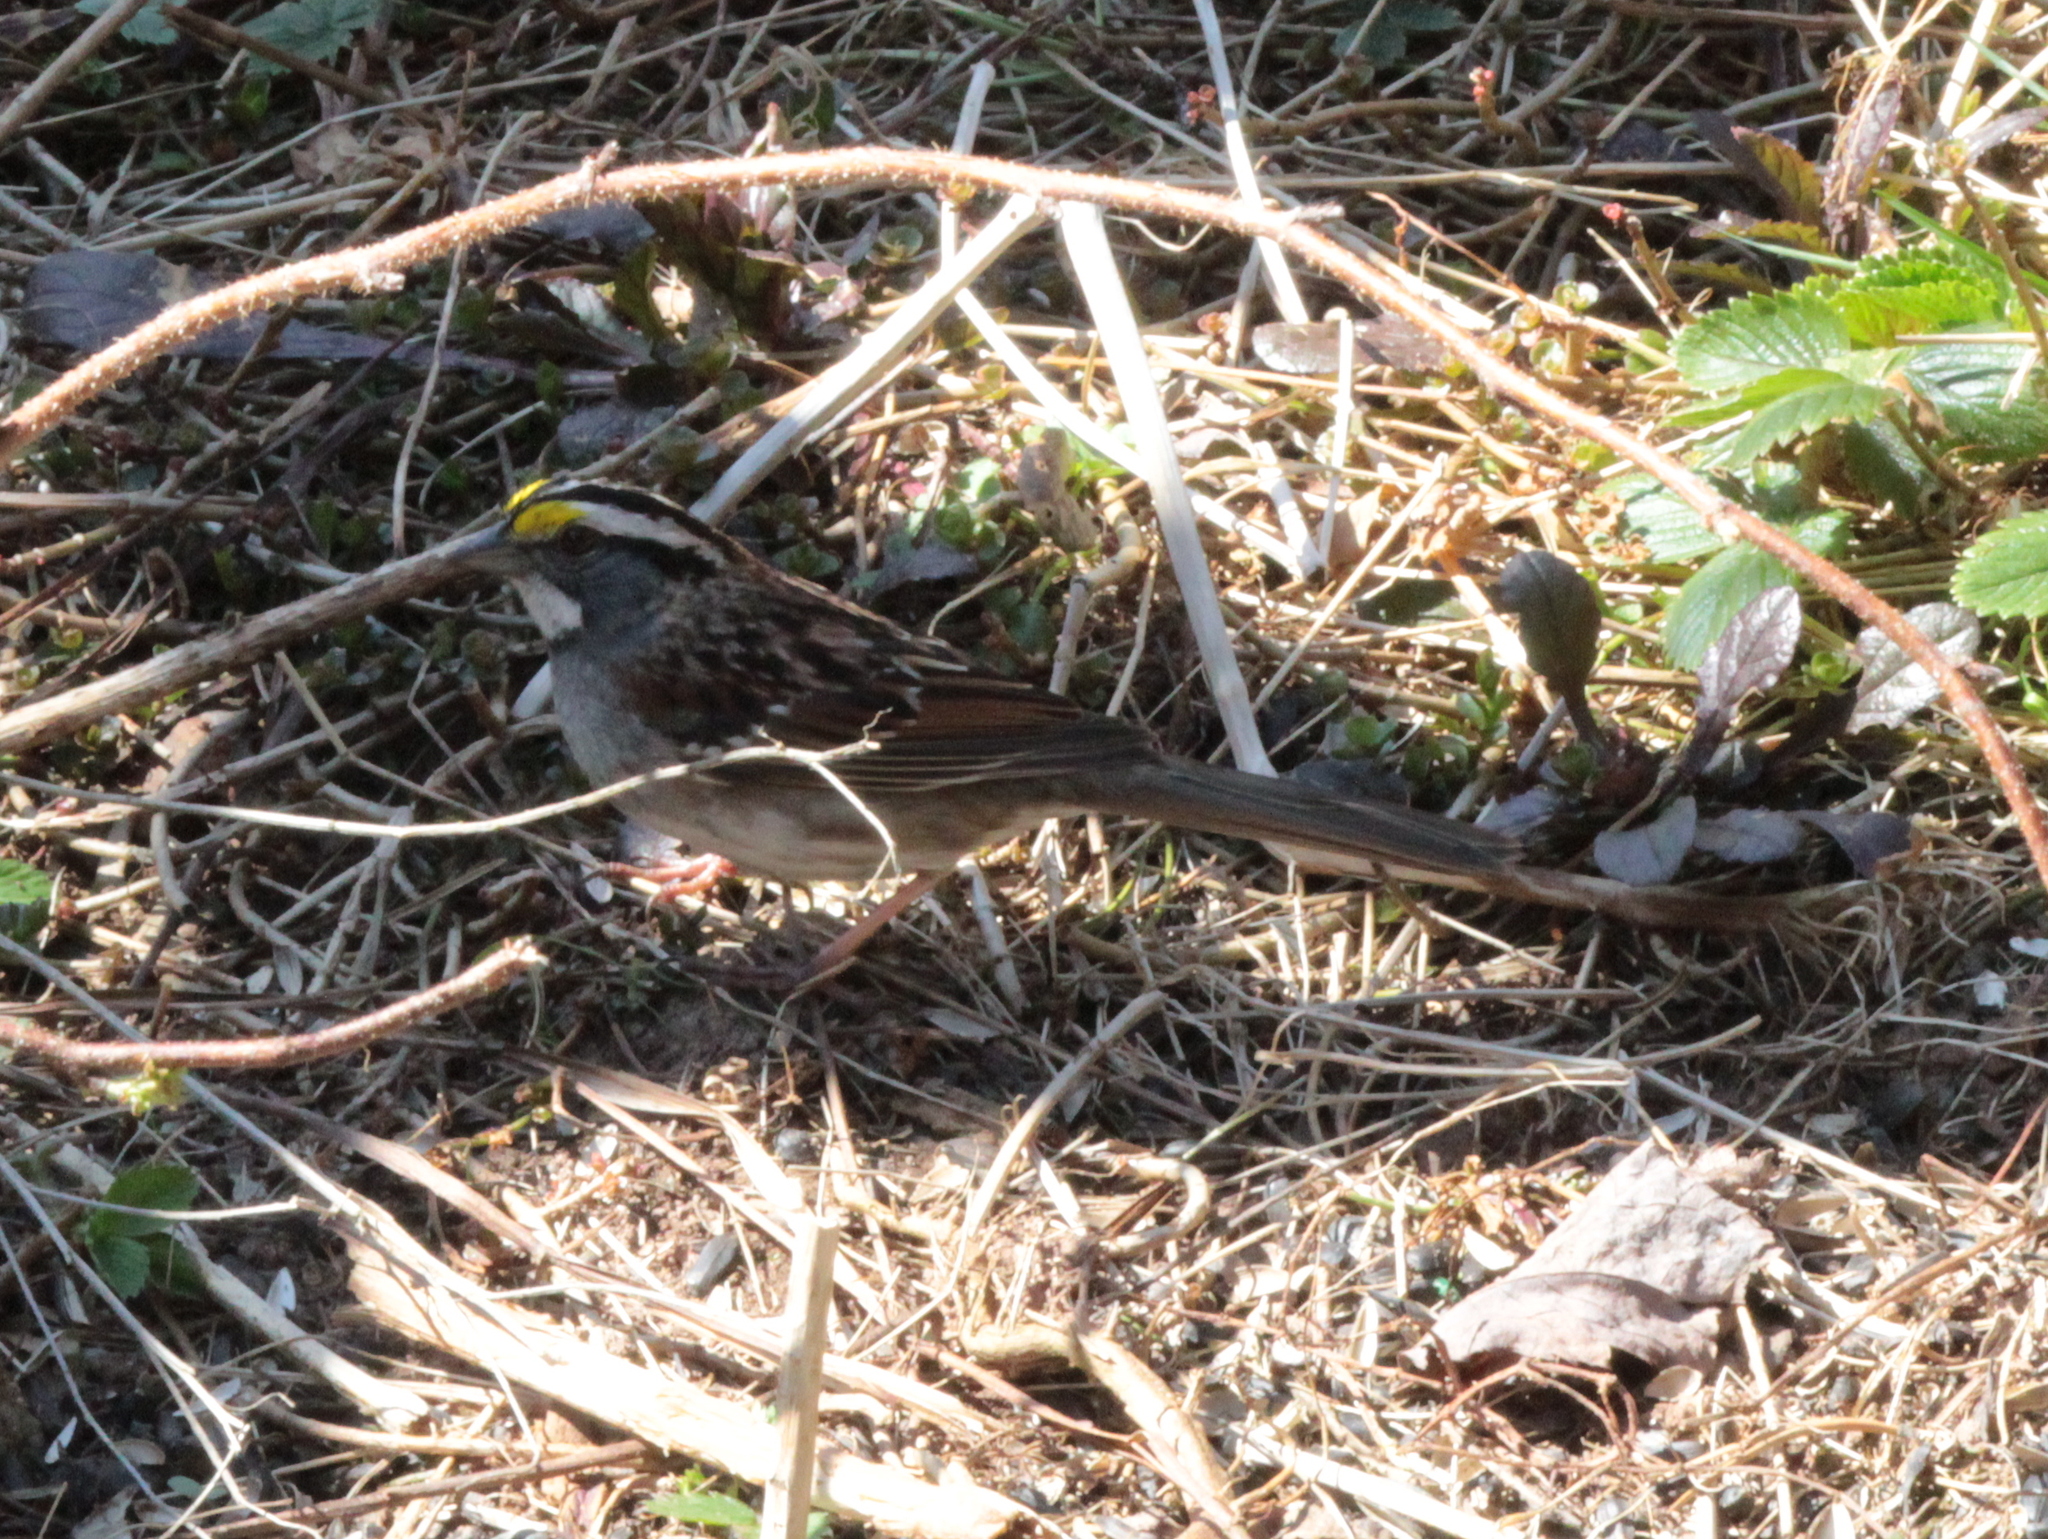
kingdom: Animalia
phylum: Chordata
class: Aves
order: Passeriformes
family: Passerellidae
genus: Zonotrichia
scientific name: Zonotrichia albicollis
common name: White-throated sparrow
